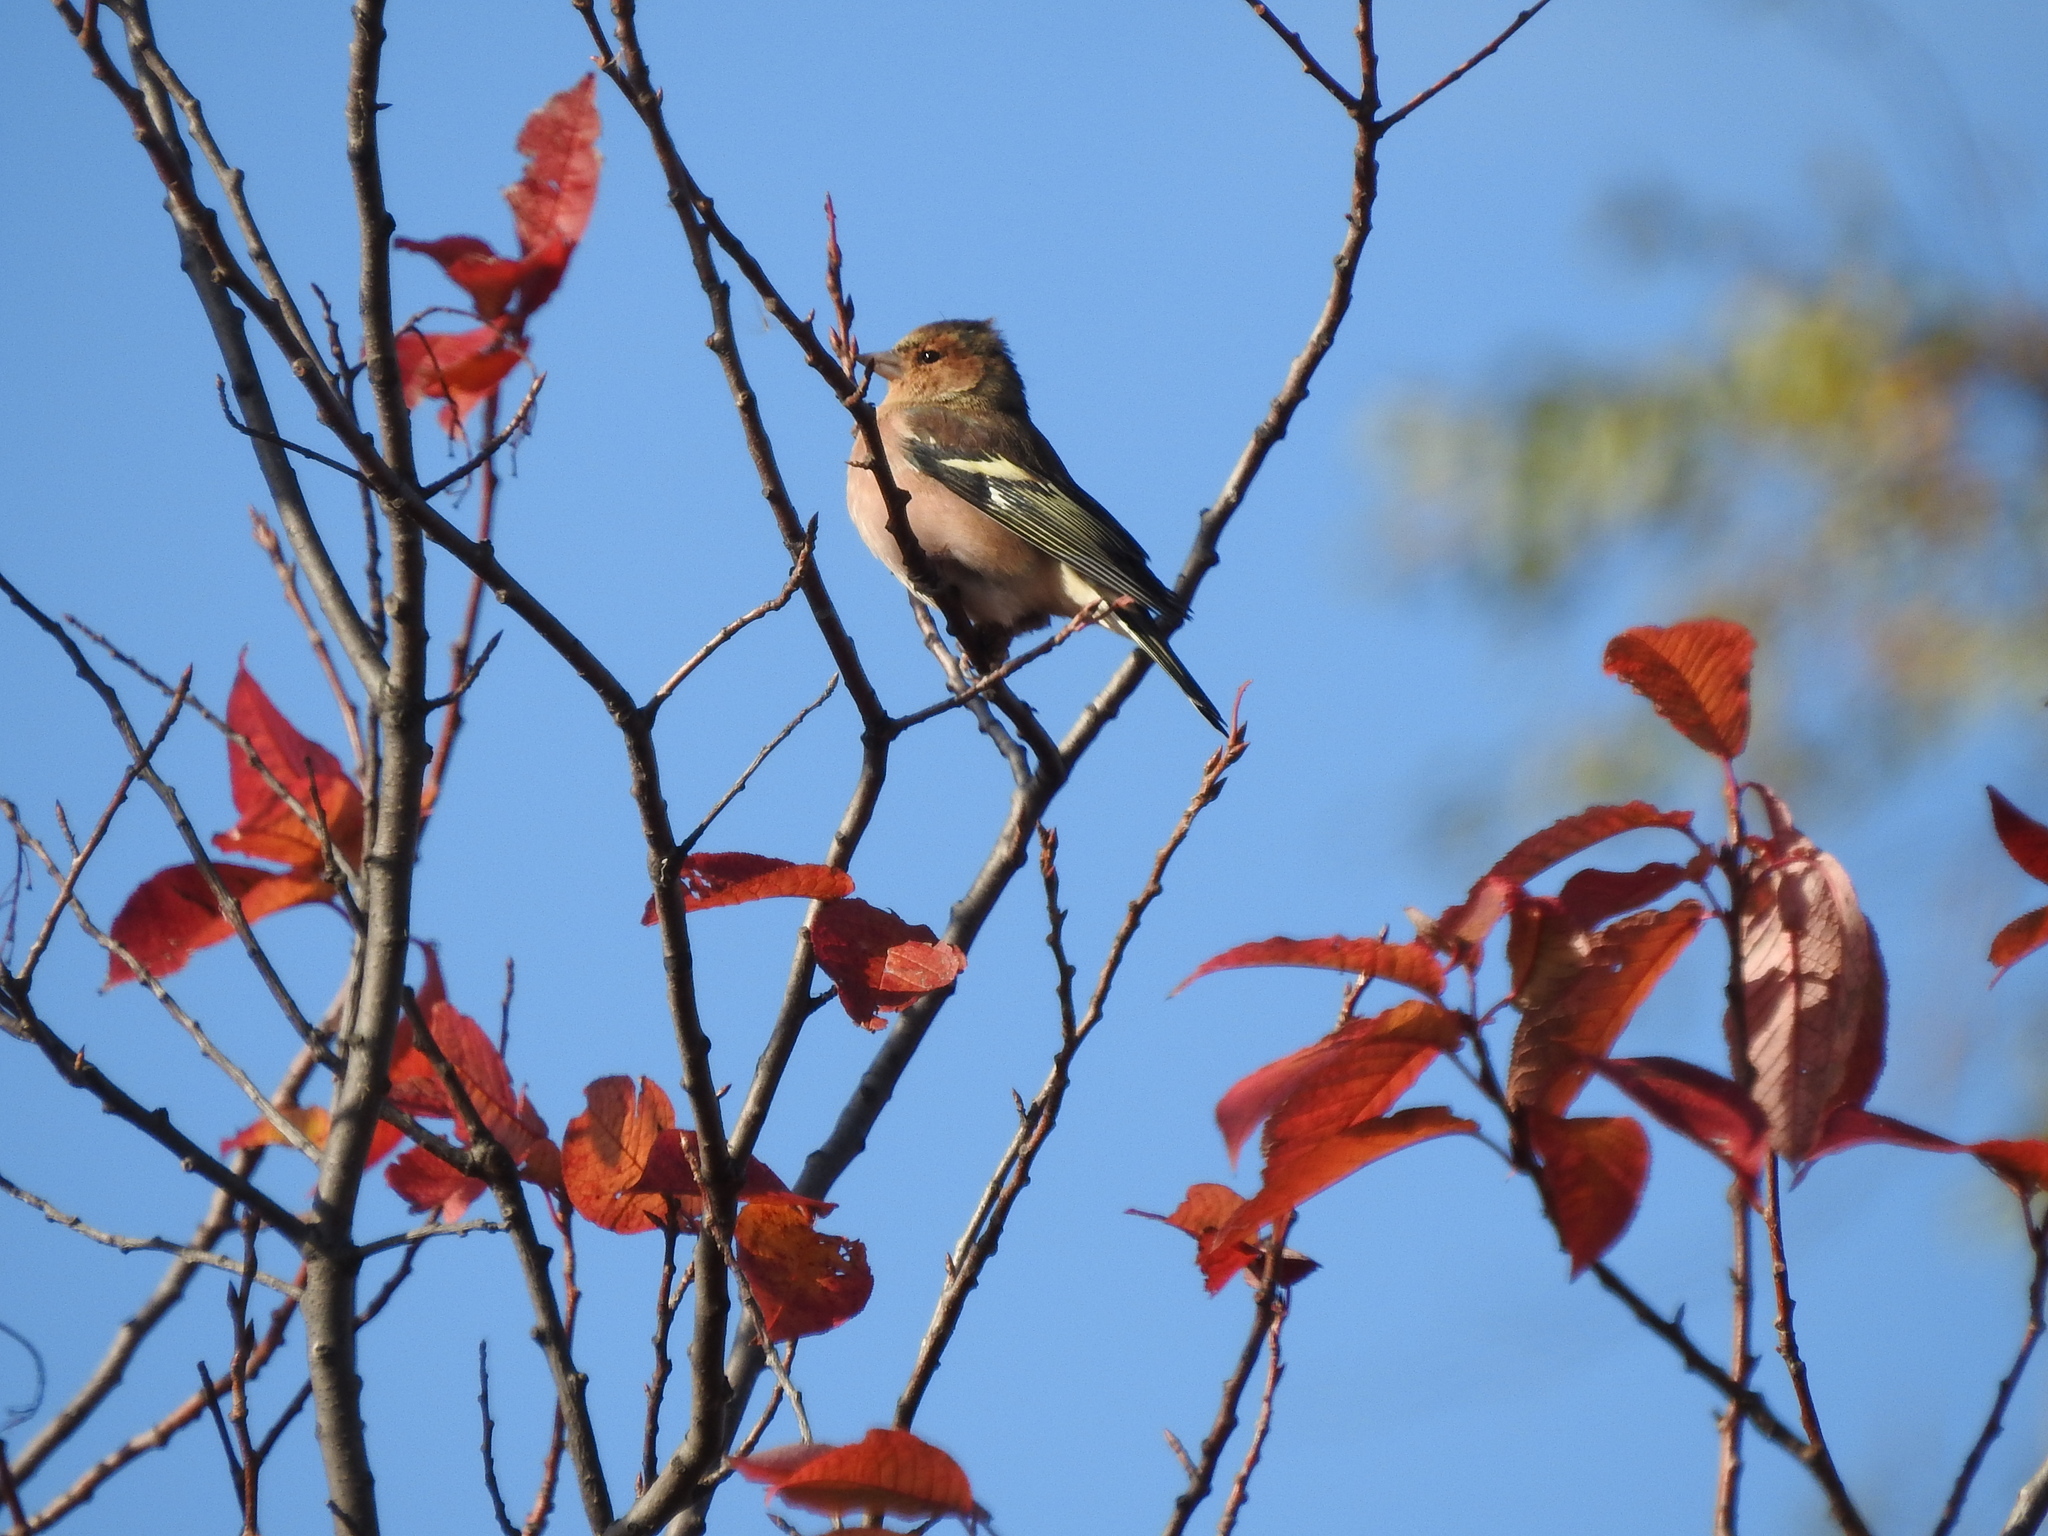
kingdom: Animalia
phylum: Chordata
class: Aves
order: Passeriformes
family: Fringillidae
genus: Fringilla
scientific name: Fringilla coelebs
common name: Common chaffinch
